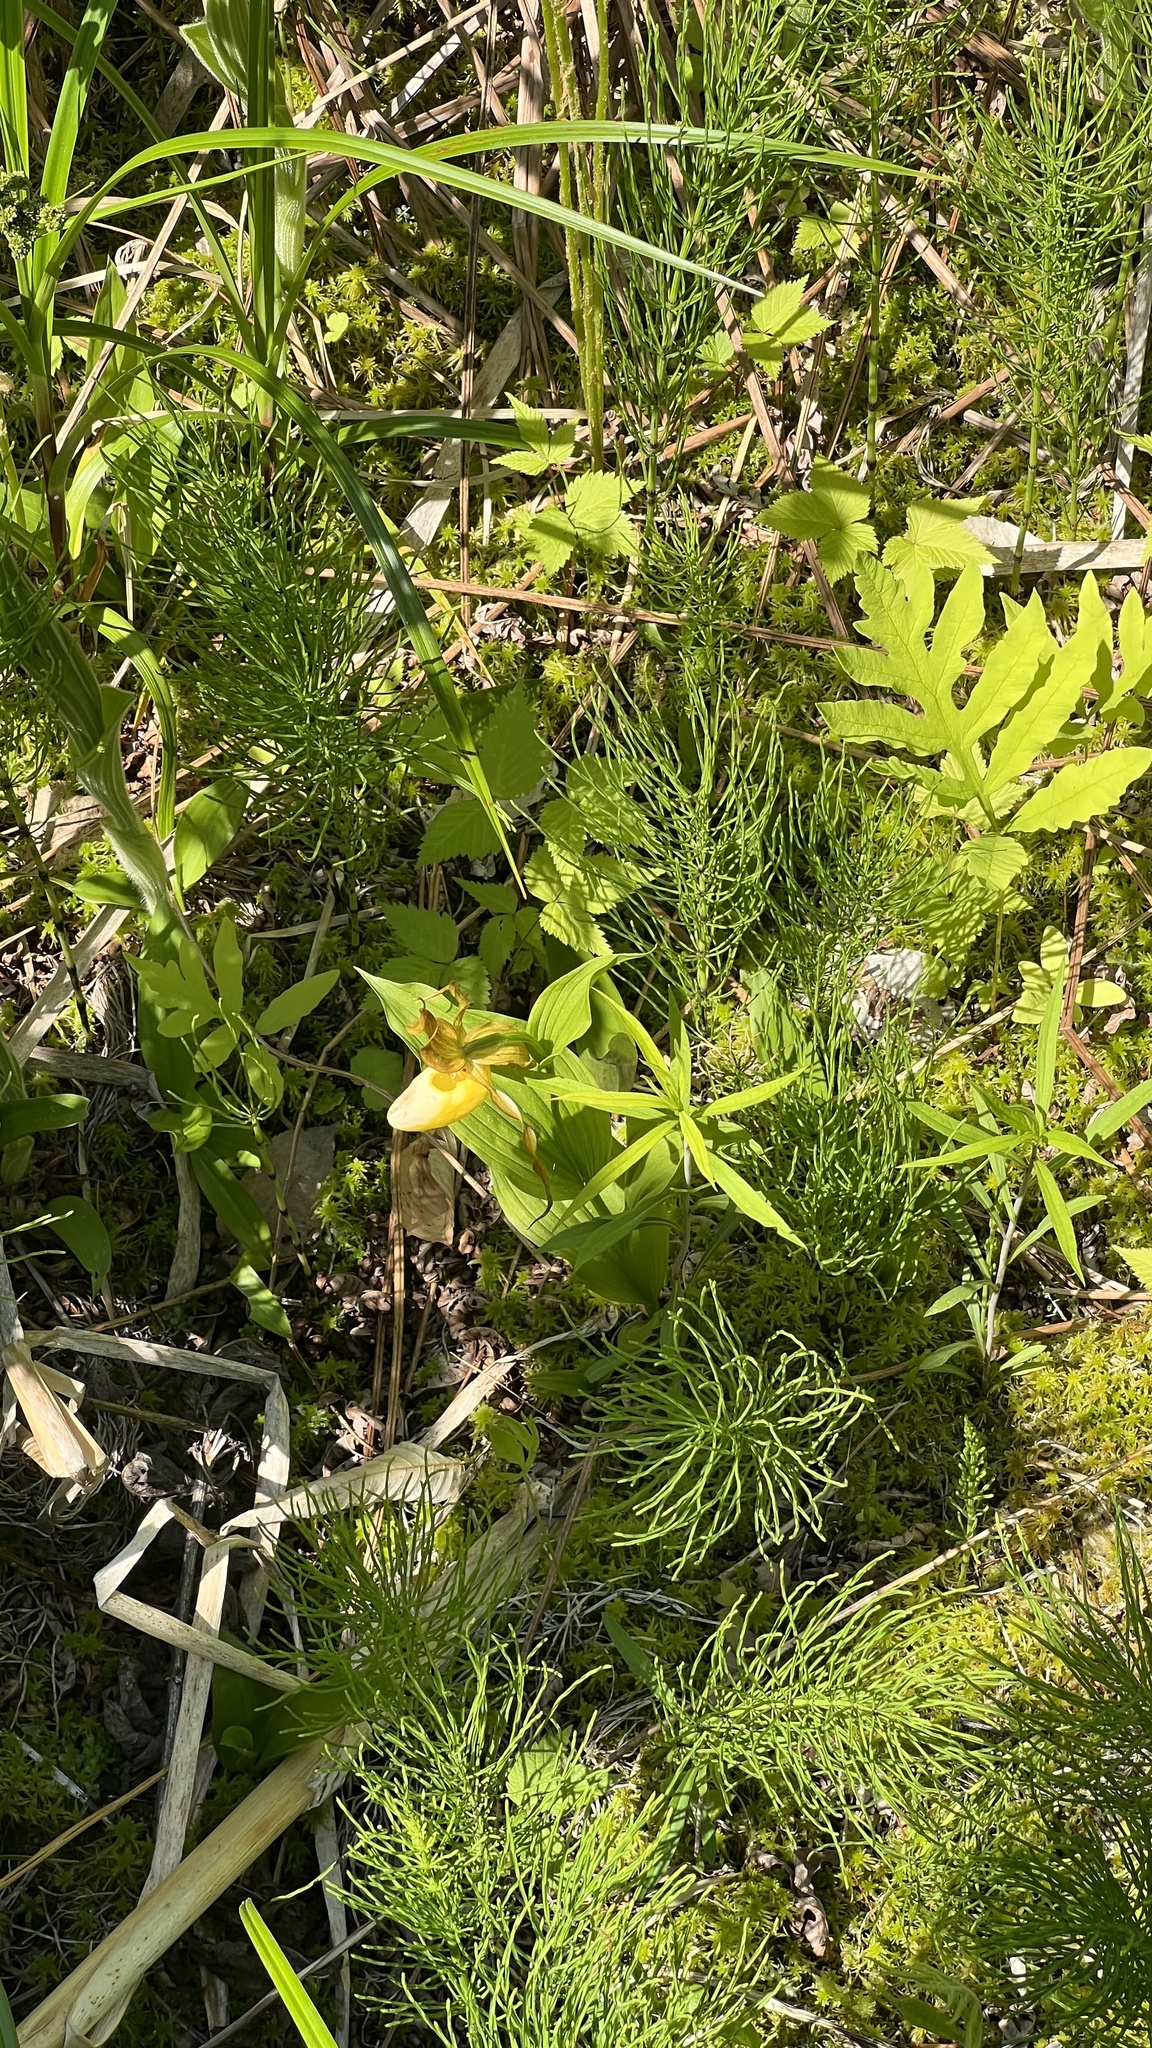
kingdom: Plantae
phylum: Tracheophyta
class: Liliopsida
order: Asparagales
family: Orchidaceae
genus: Cypripedium
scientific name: Cypripedium parviflorum
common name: American yellow lady's-slipper
